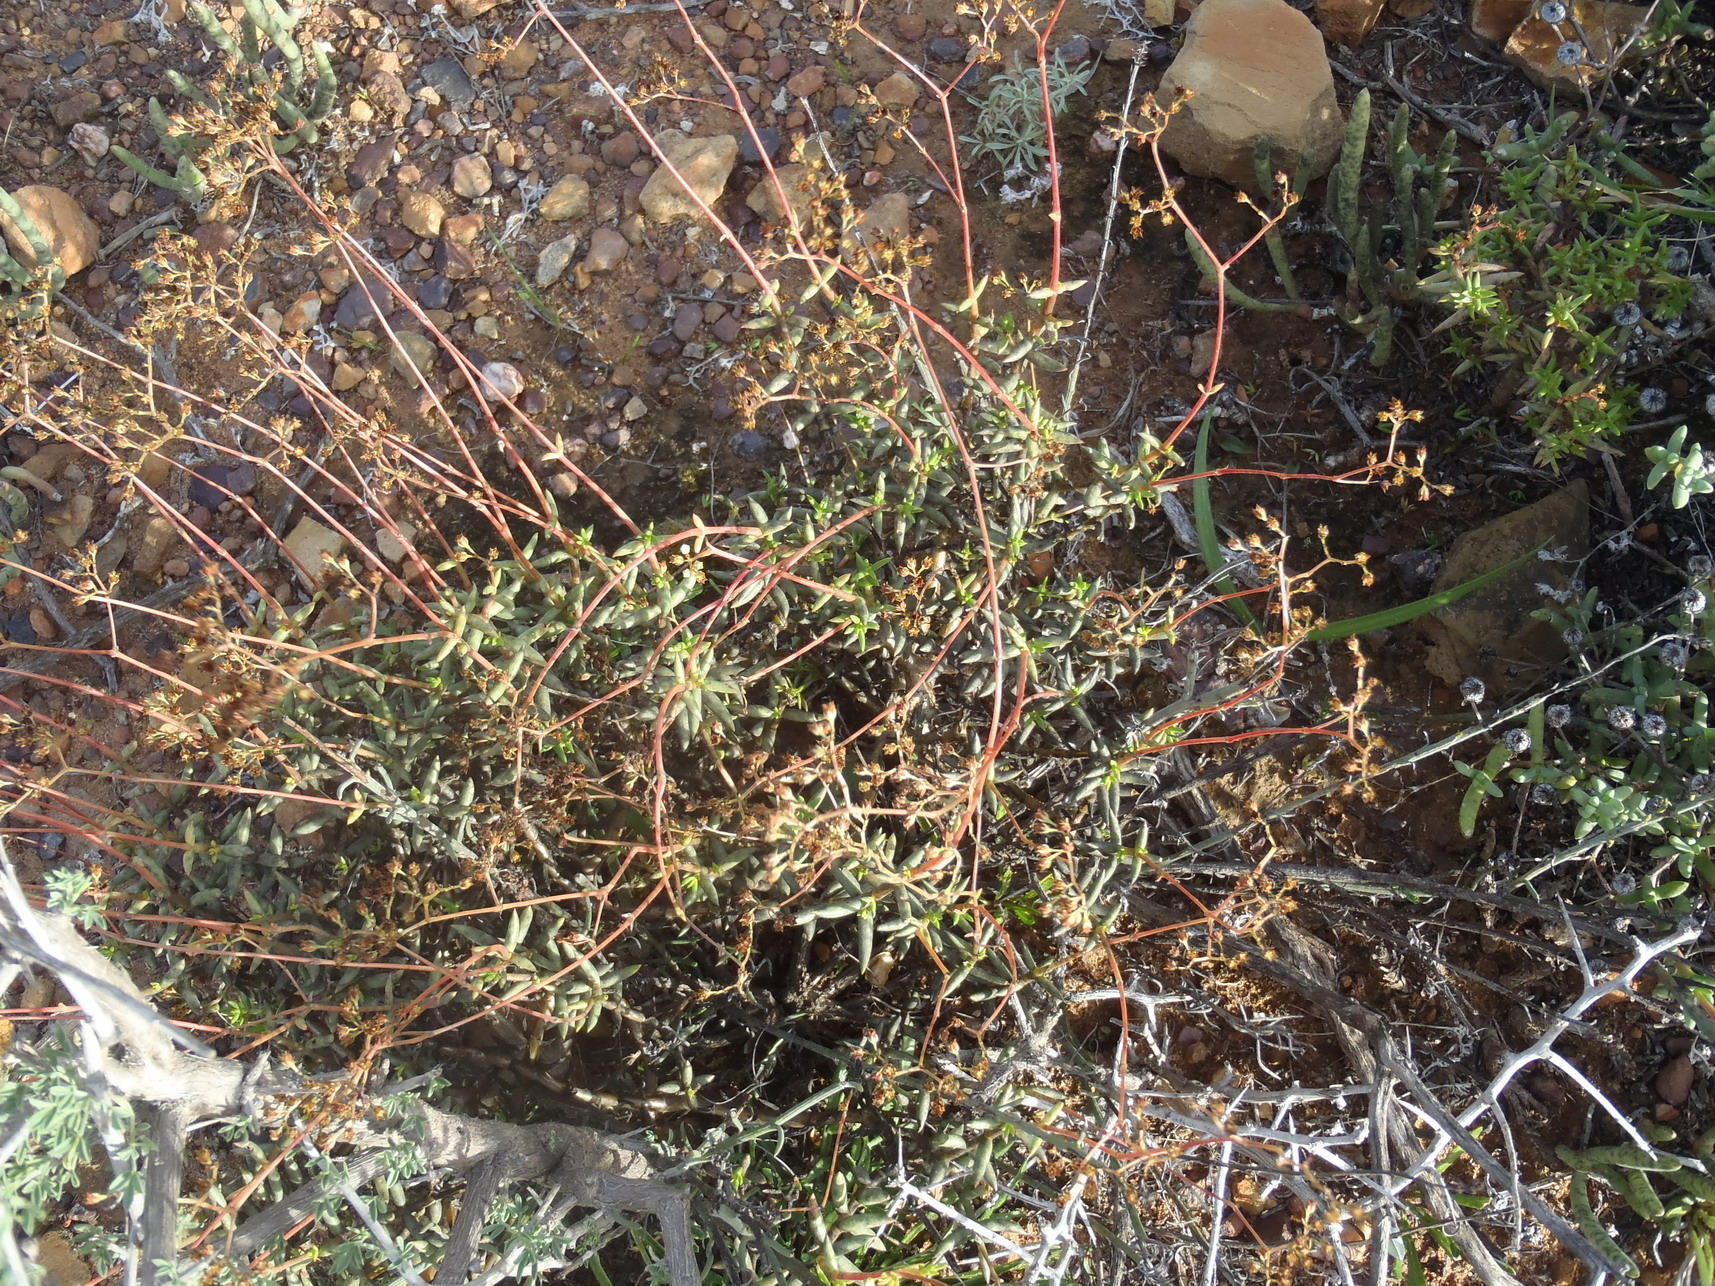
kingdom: Plantae
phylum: Tracheophyta
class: Magnoliopsida
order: Saxifragales
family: Crassulaceae
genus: Crassula
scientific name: Crassula tetragona
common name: Pygmyweed
